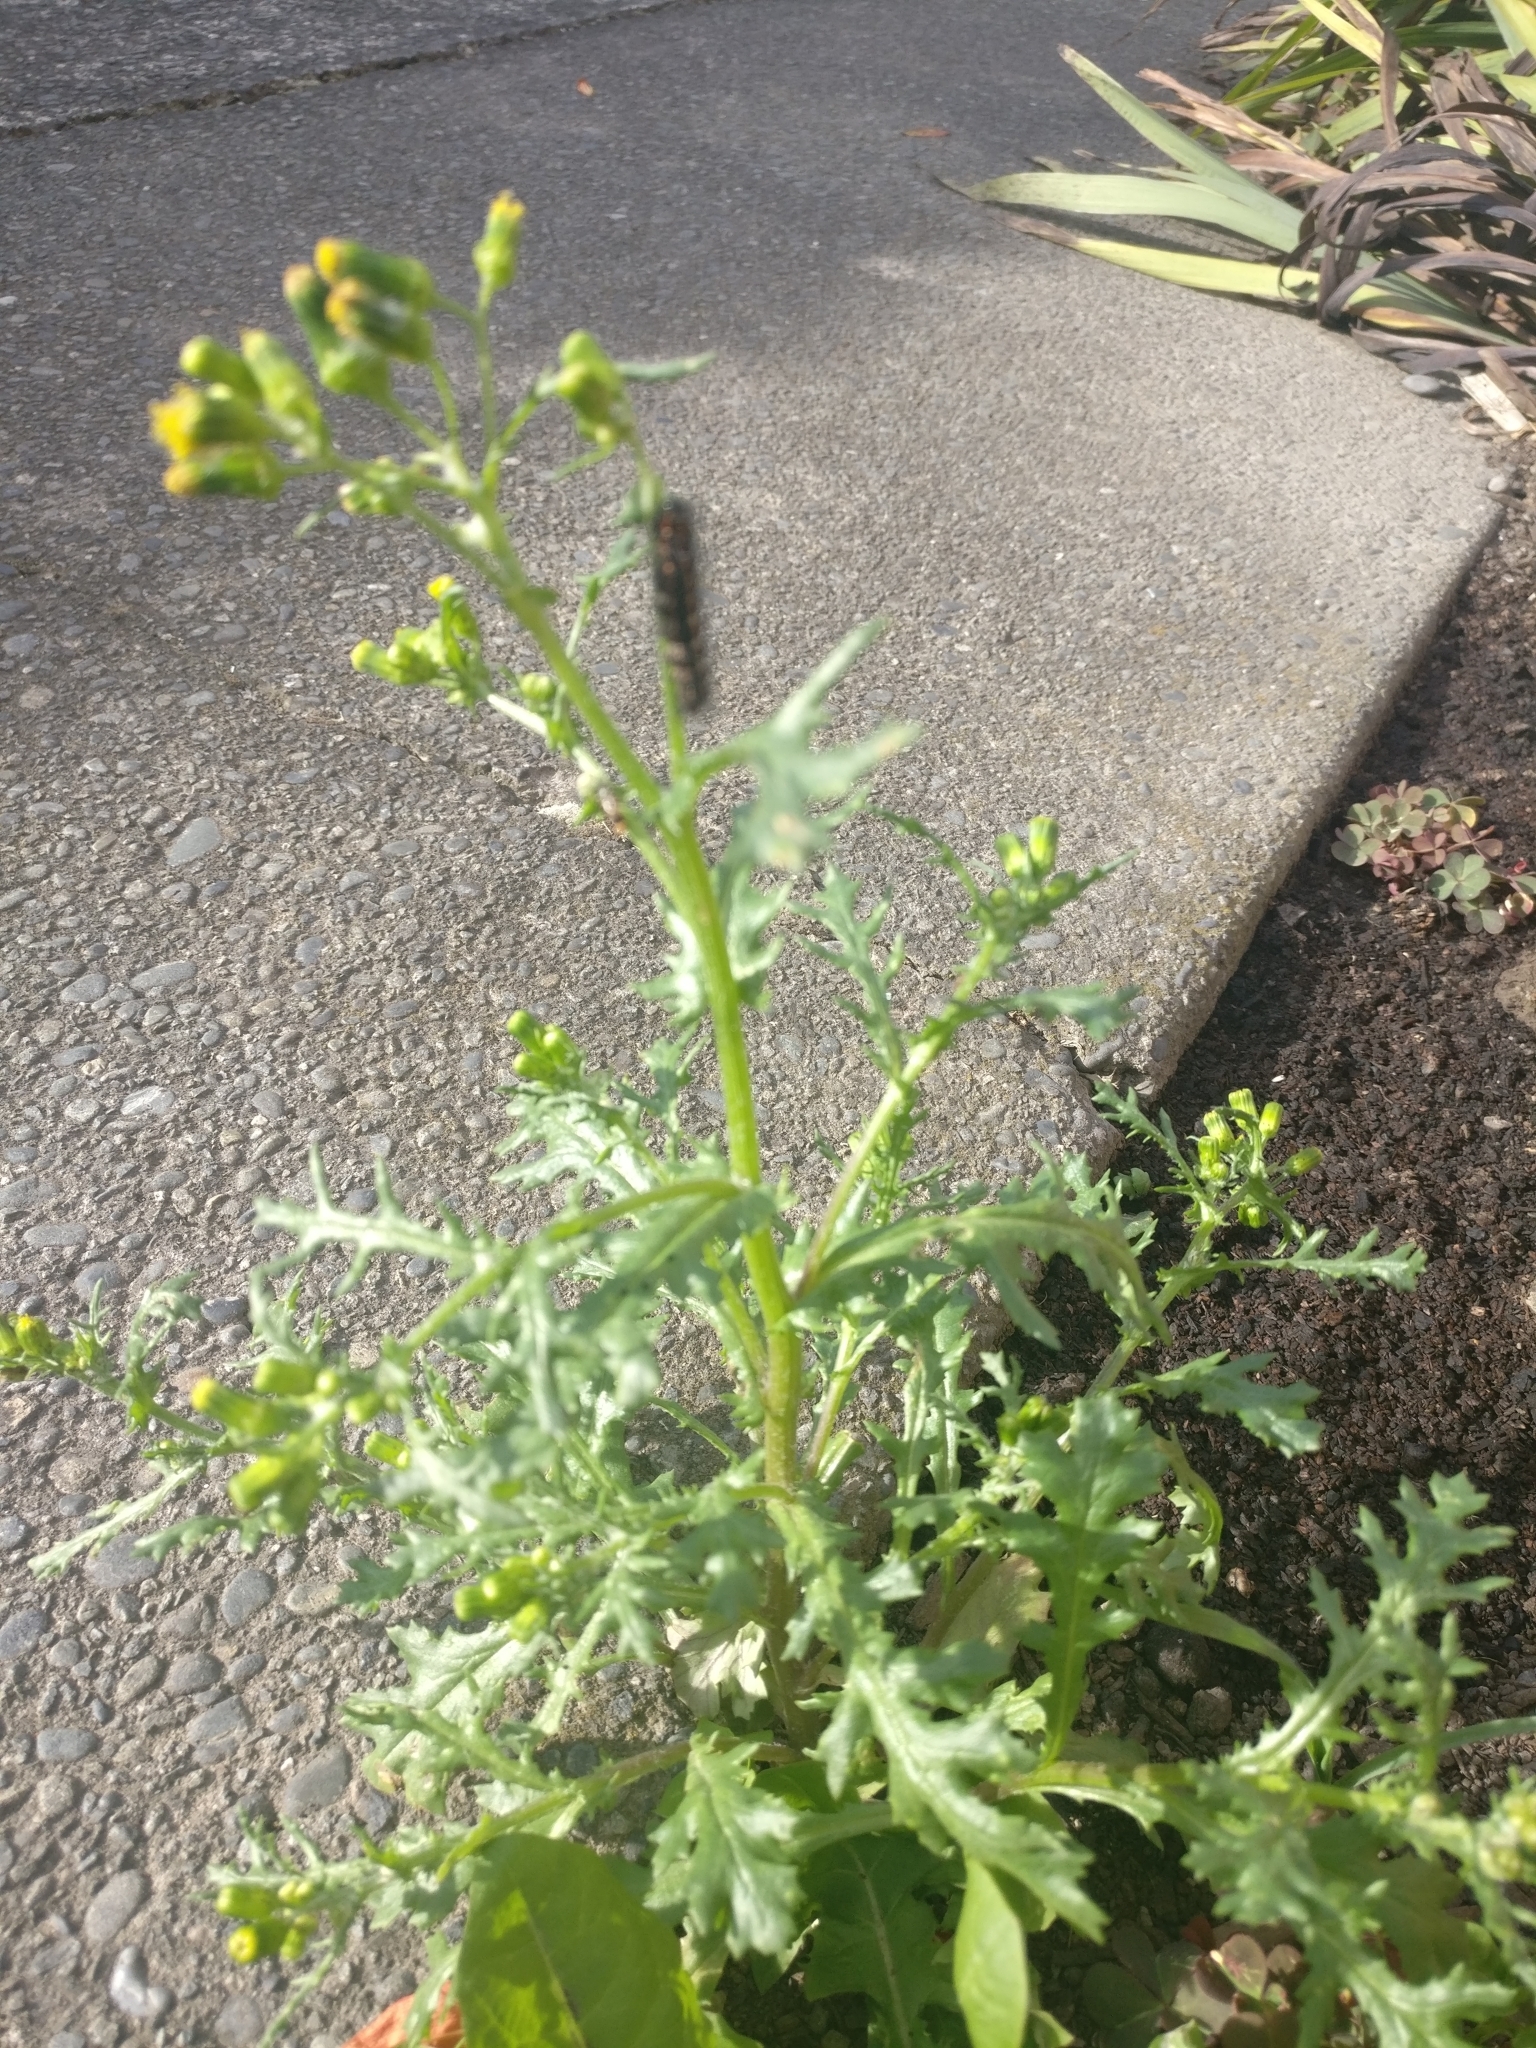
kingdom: Animalia
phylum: Arthropoda
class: Insecta
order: Lepidoptera
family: Erebidae
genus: Nyctemera
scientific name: Nyctemera annulatum
